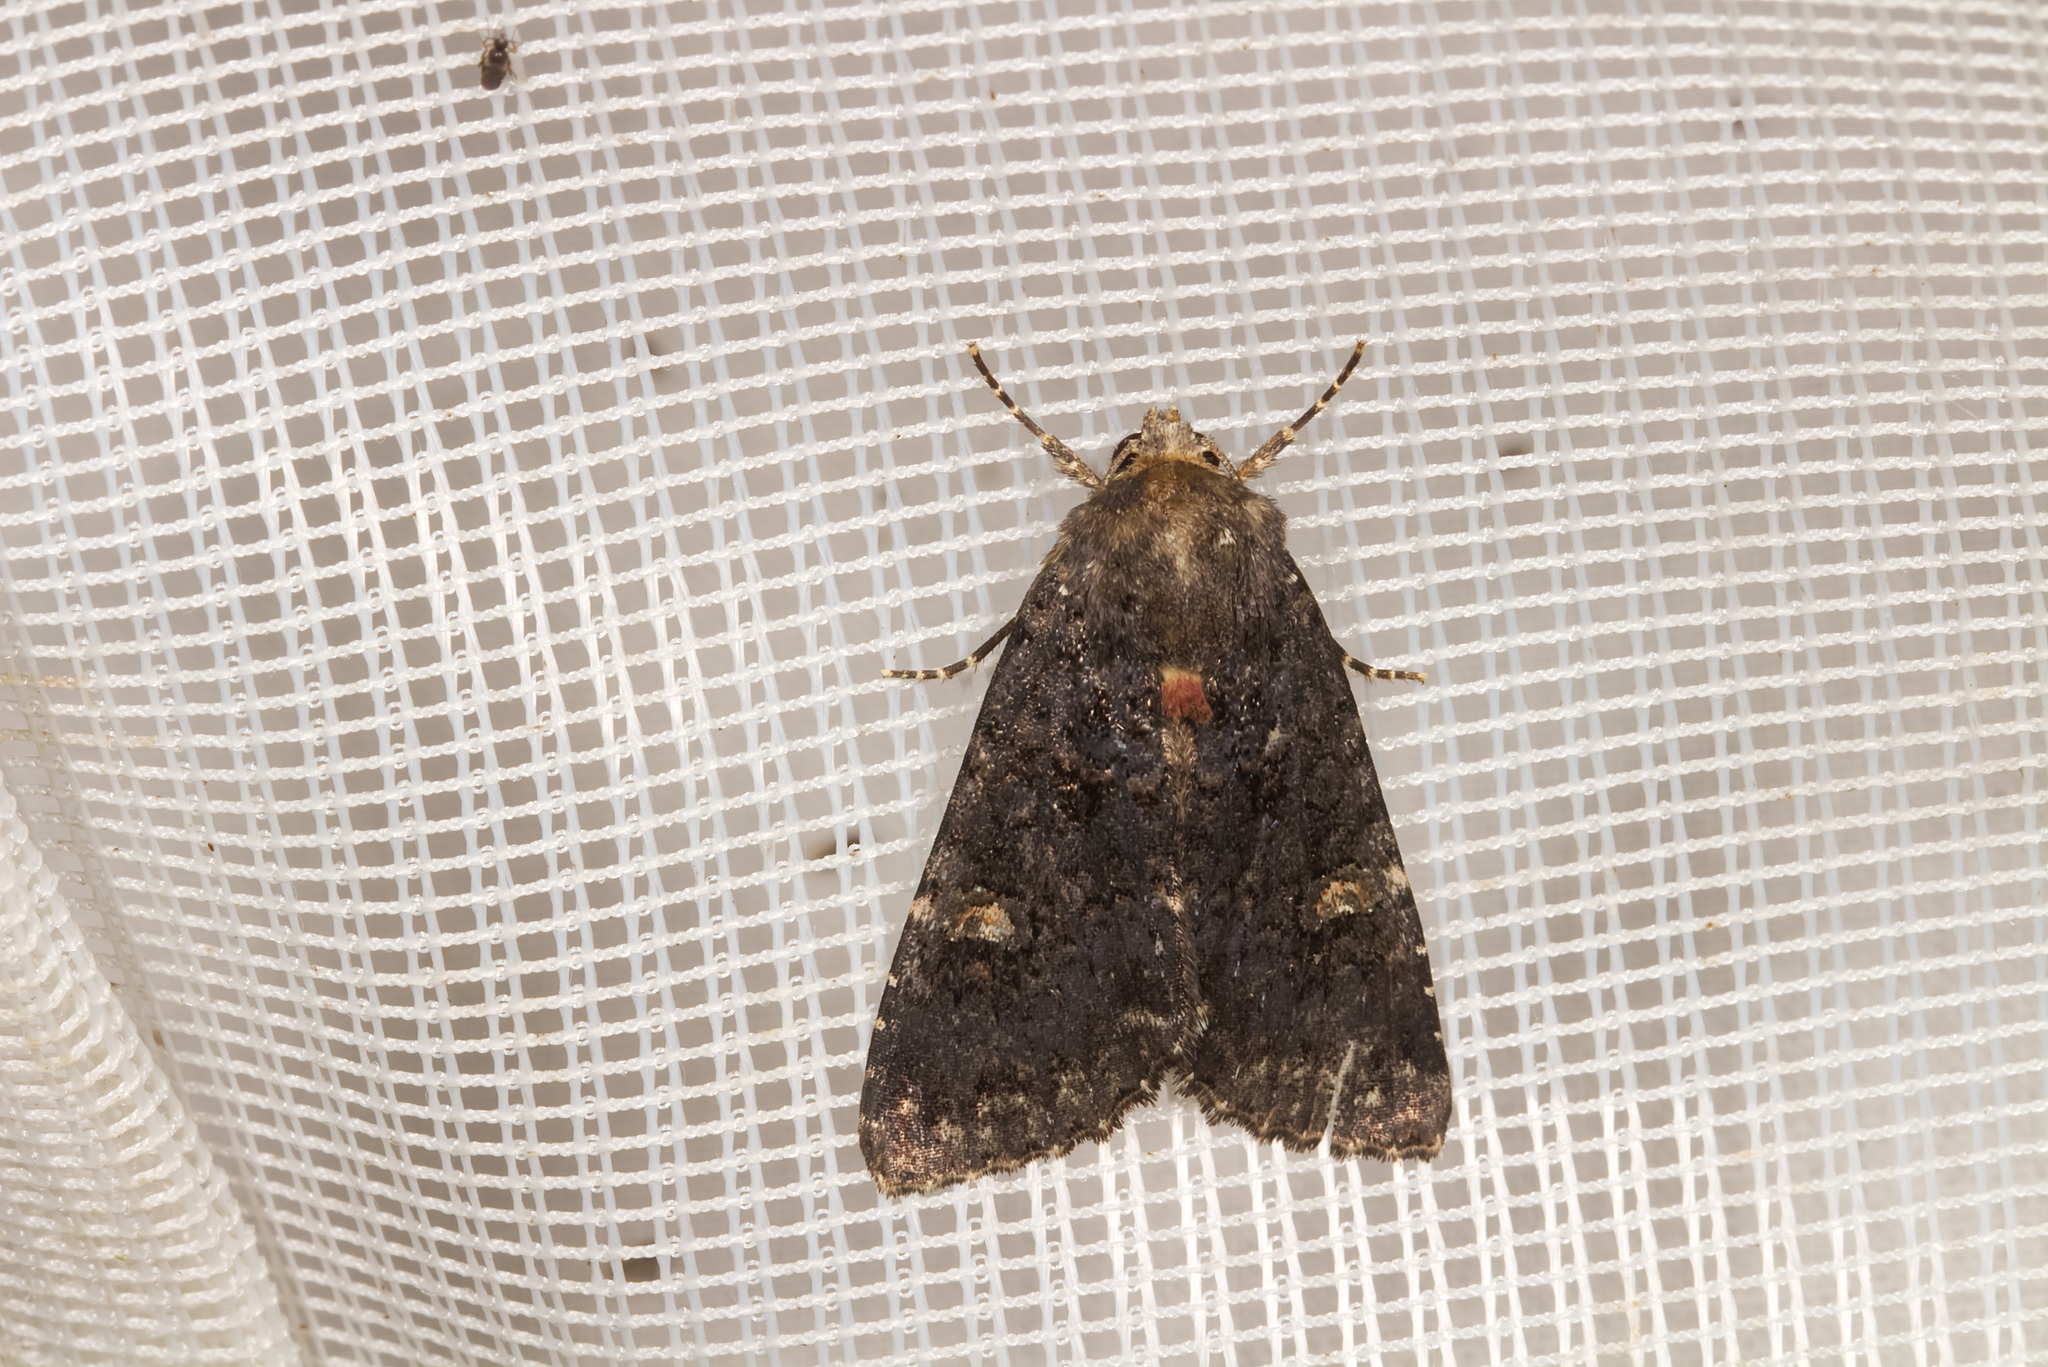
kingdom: Animalia
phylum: Arthropoda
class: Insecta
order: Lepidoptera
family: Noctuidae
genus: Melanchra
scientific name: Melanchra persicariae
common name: Dot moth
